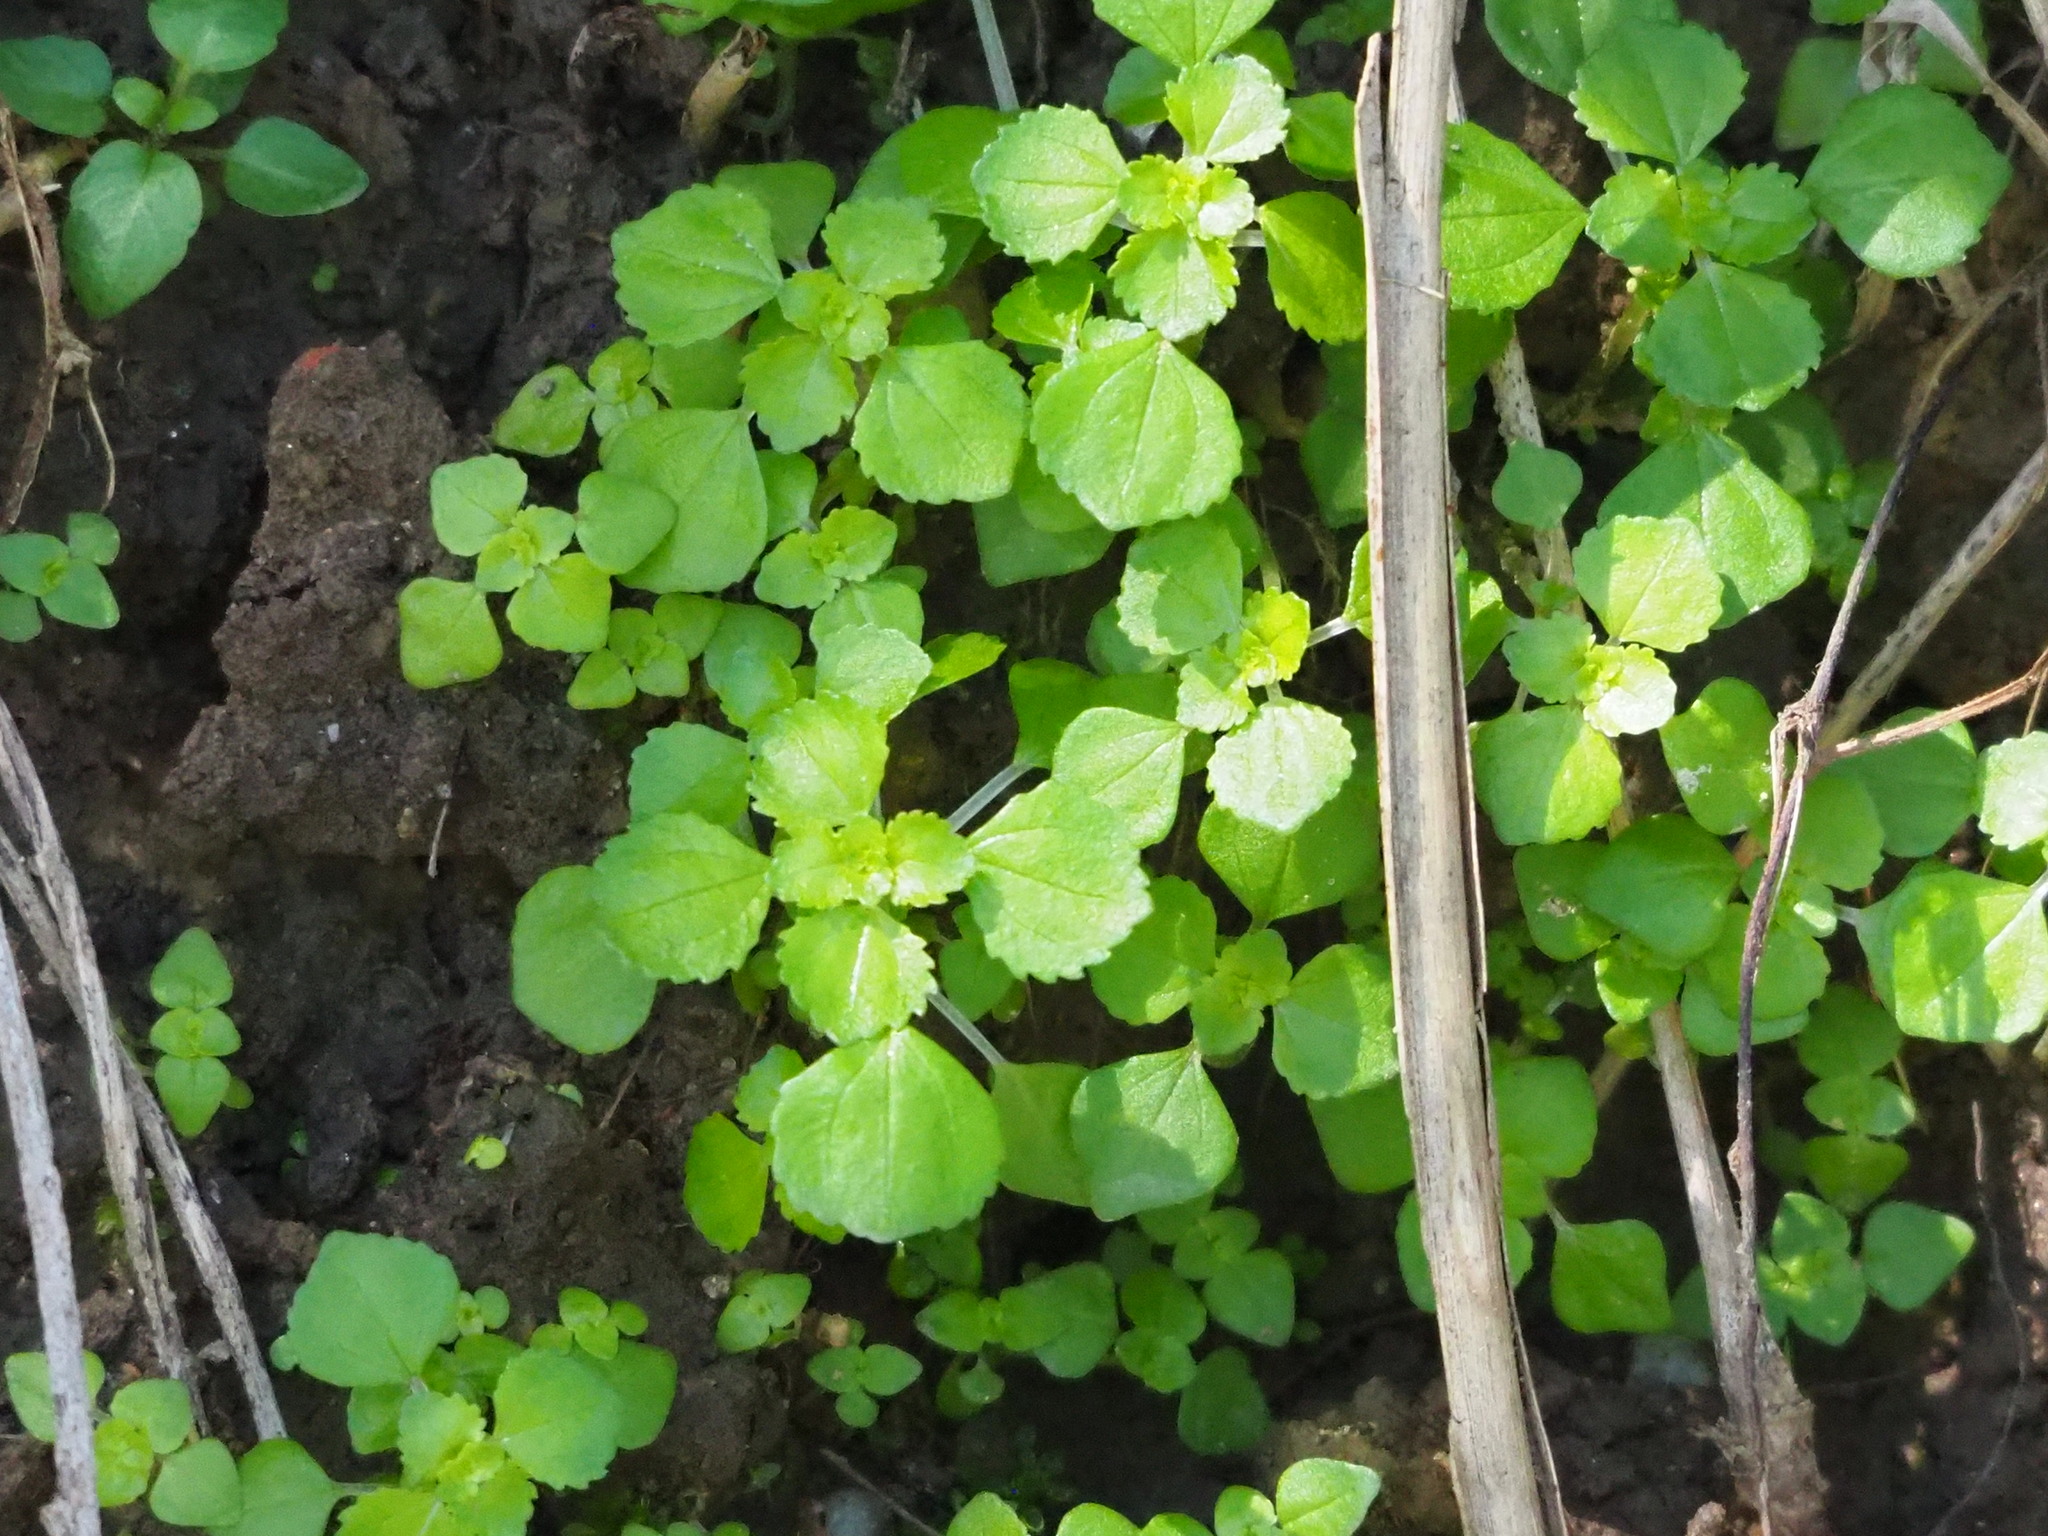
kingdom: Plantae
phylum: Tracheophyta
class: Magnoliopsida
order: Rosales
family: Urticaceae
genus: Pilea
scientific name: Pilea peploides
